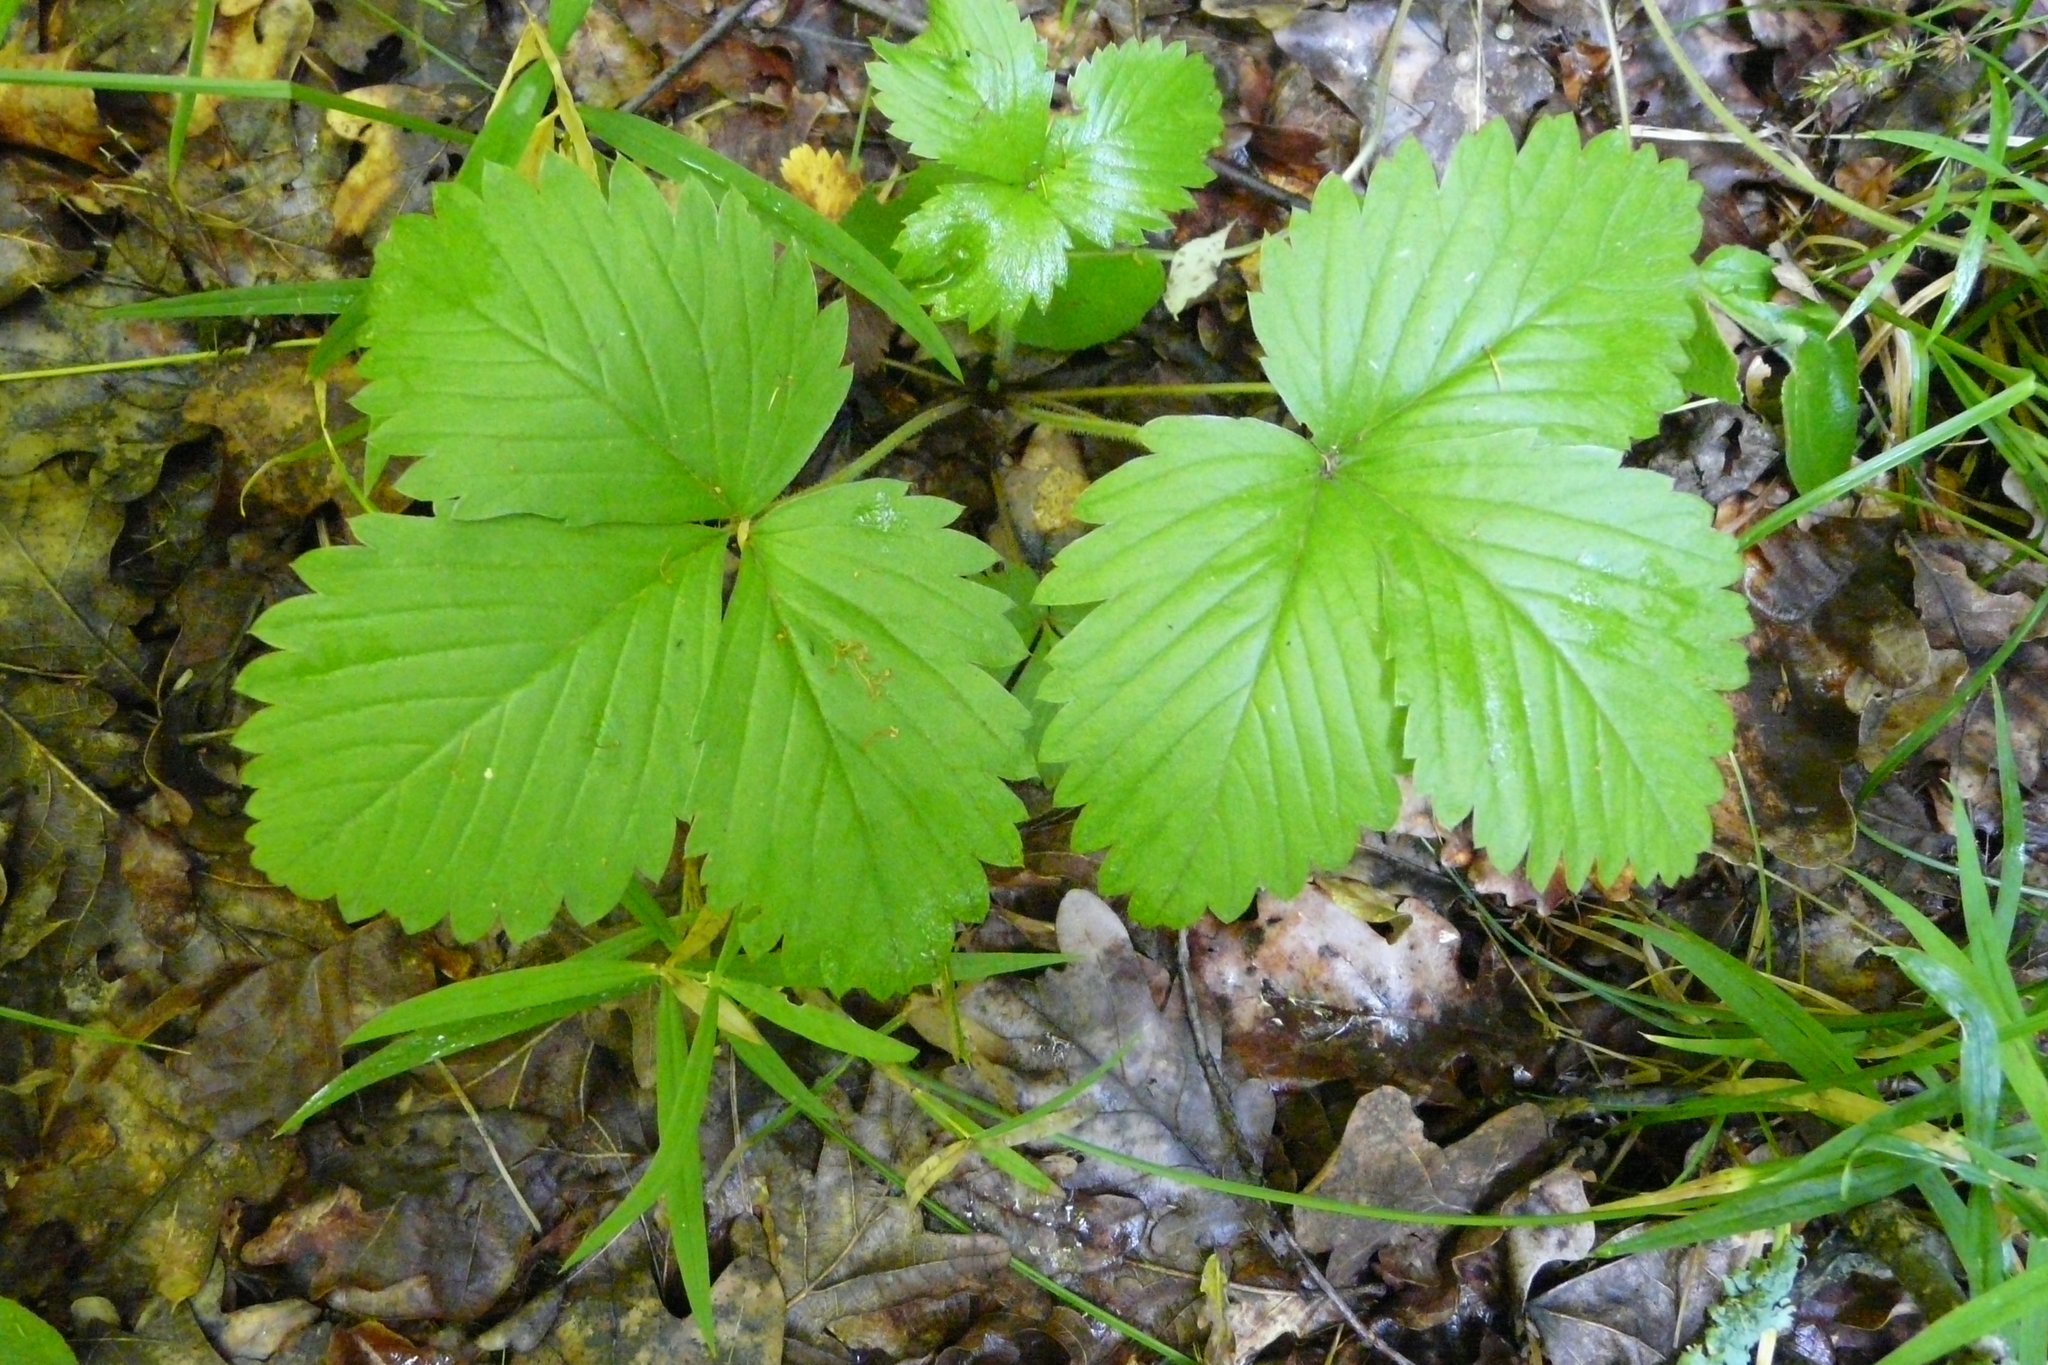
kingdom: Plantae
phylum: Tracheophyta
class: Magnoliopsida
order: Rosales
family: Rosaceae
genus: Fragaria
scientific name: Fragaria vesca
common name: Wild strawberry
